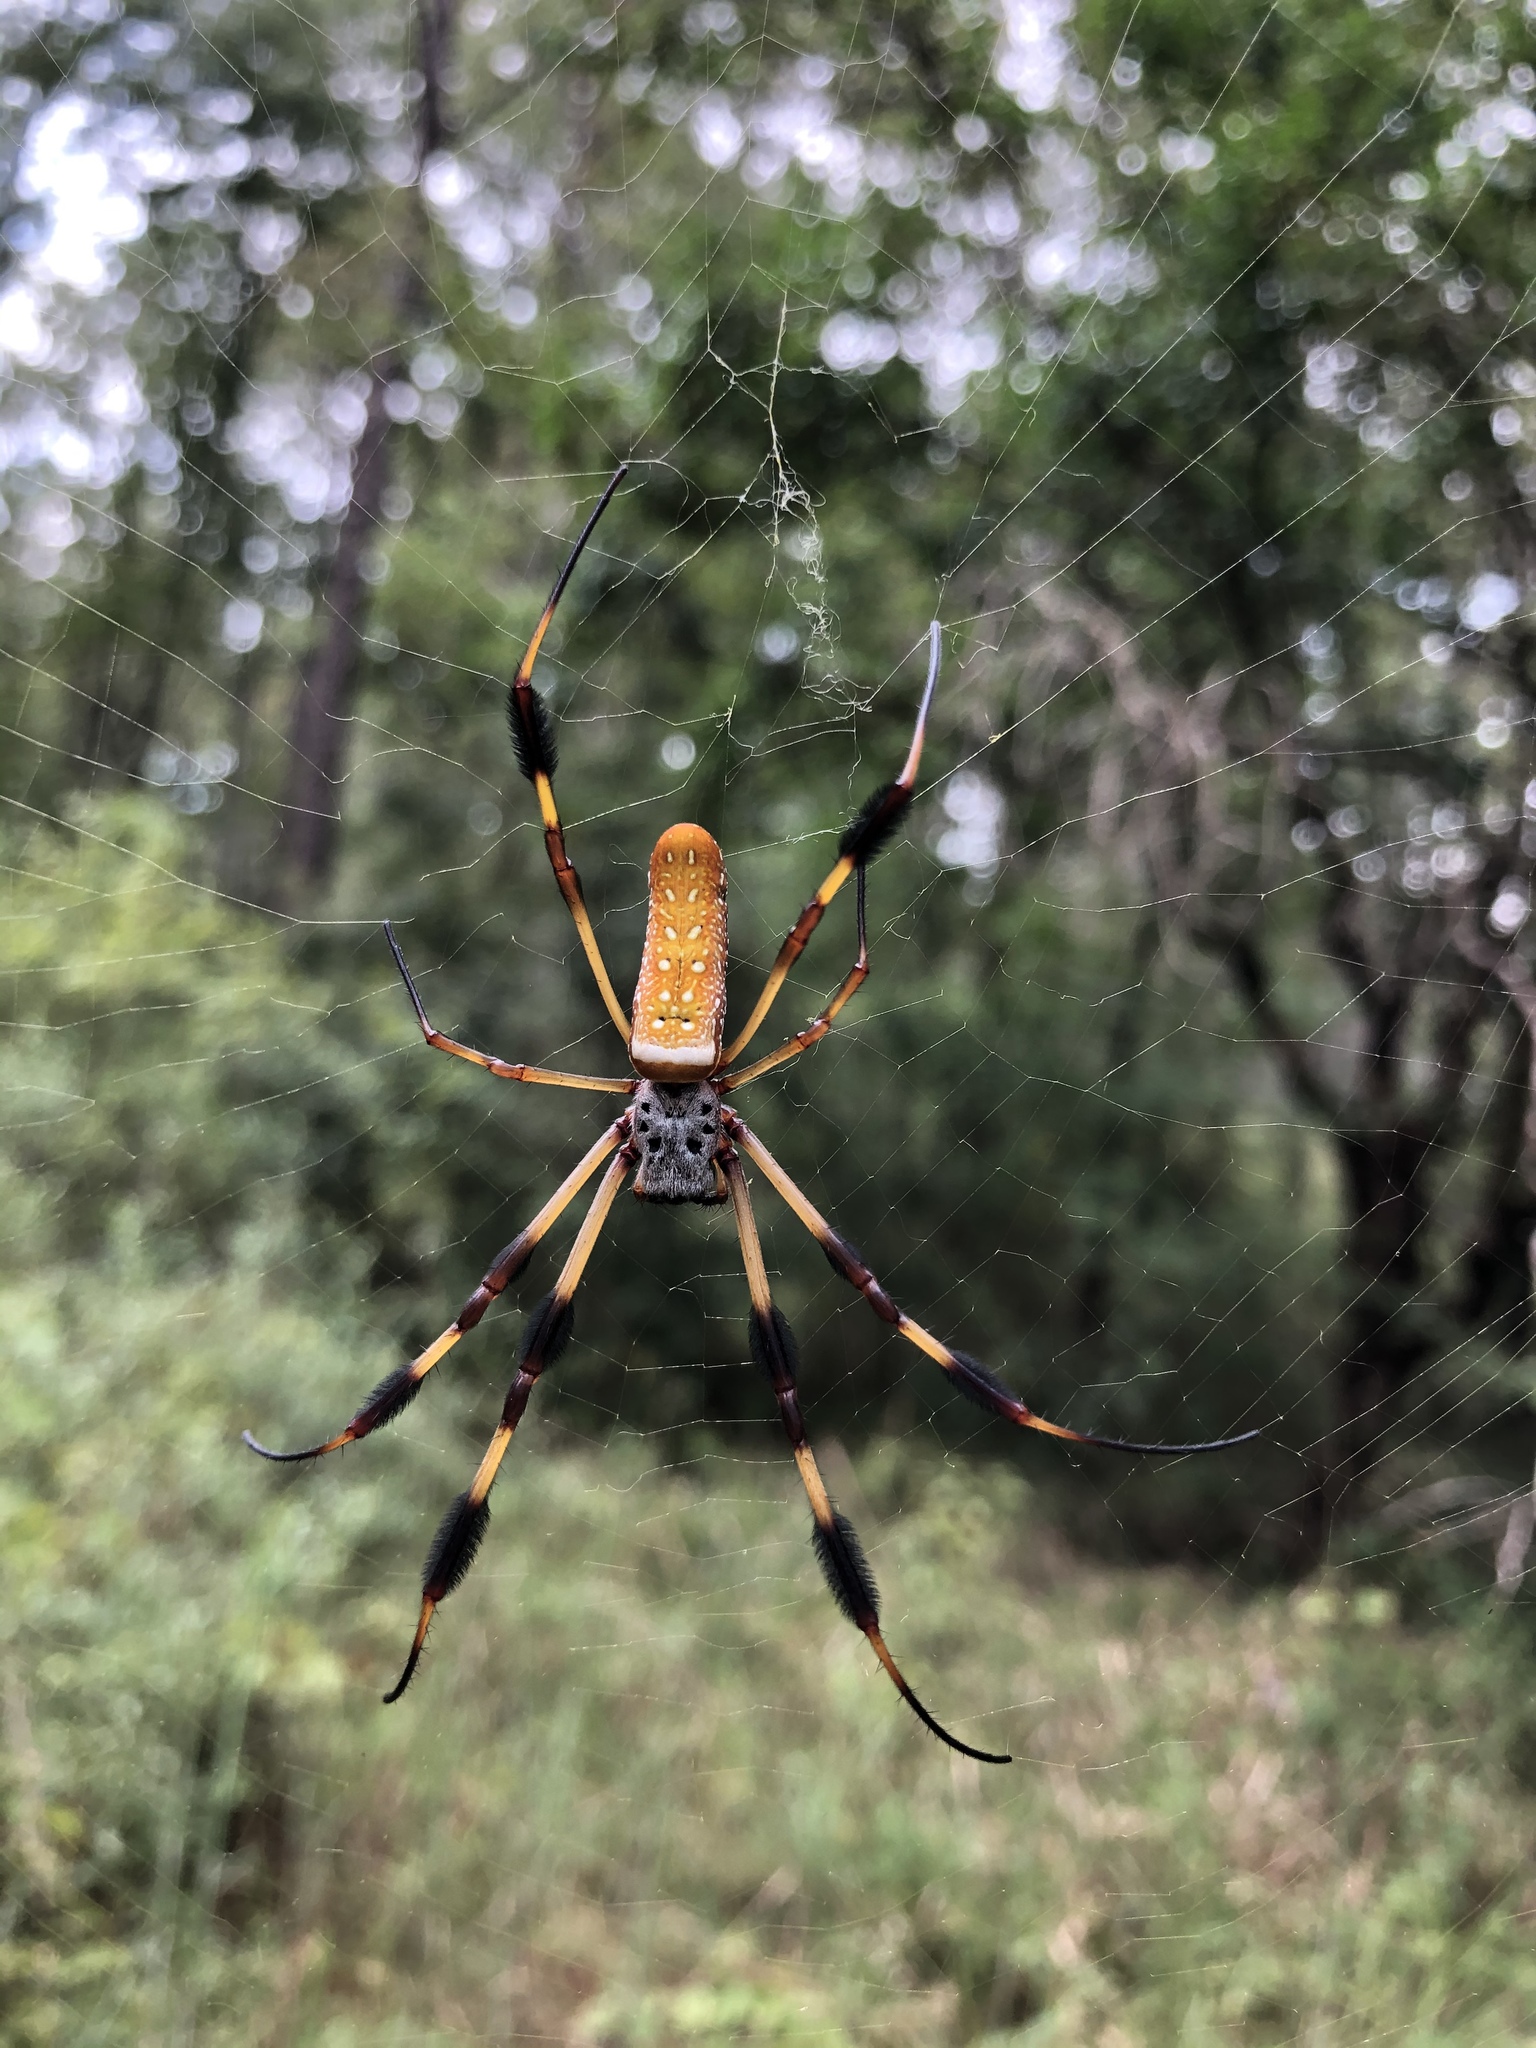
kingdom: Animalia
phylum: Arthropoda
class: Arachnida
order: Araneae
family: Araneidae
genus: Trichonephila
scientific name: Trichonephila clavipes
